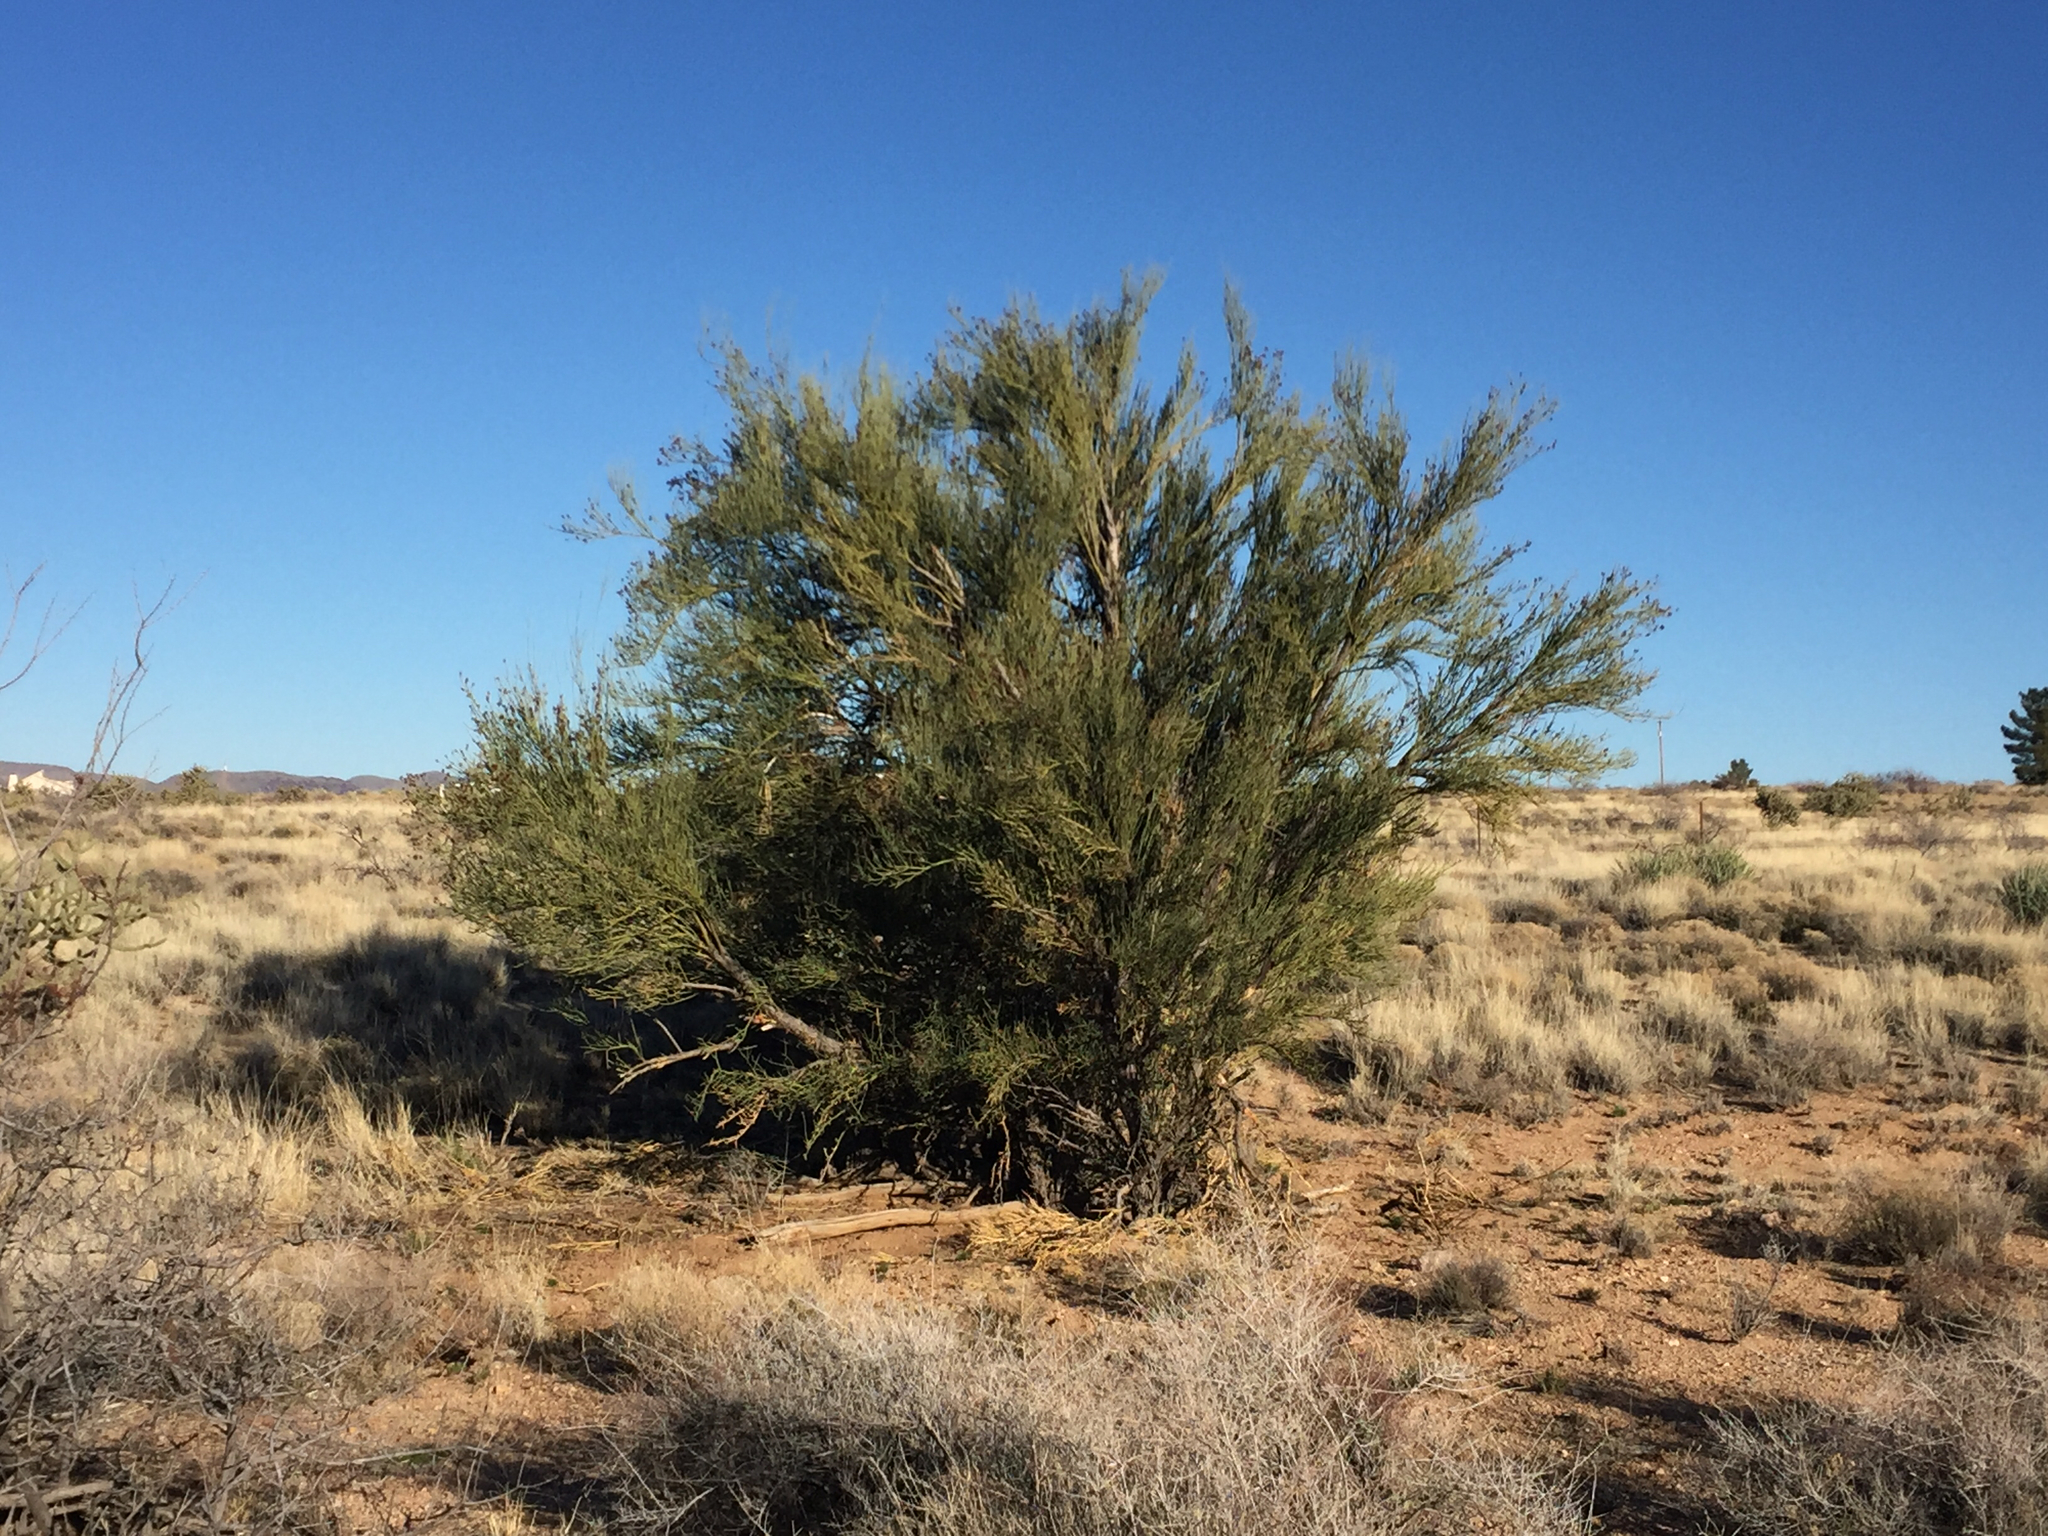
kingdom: Plantae
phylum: Tracheophyta
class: Magnoliopsida
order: Celastrales
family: Celastraceae
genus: Canotia
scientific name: Canotia holacantha
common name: Crucifixion thorns
